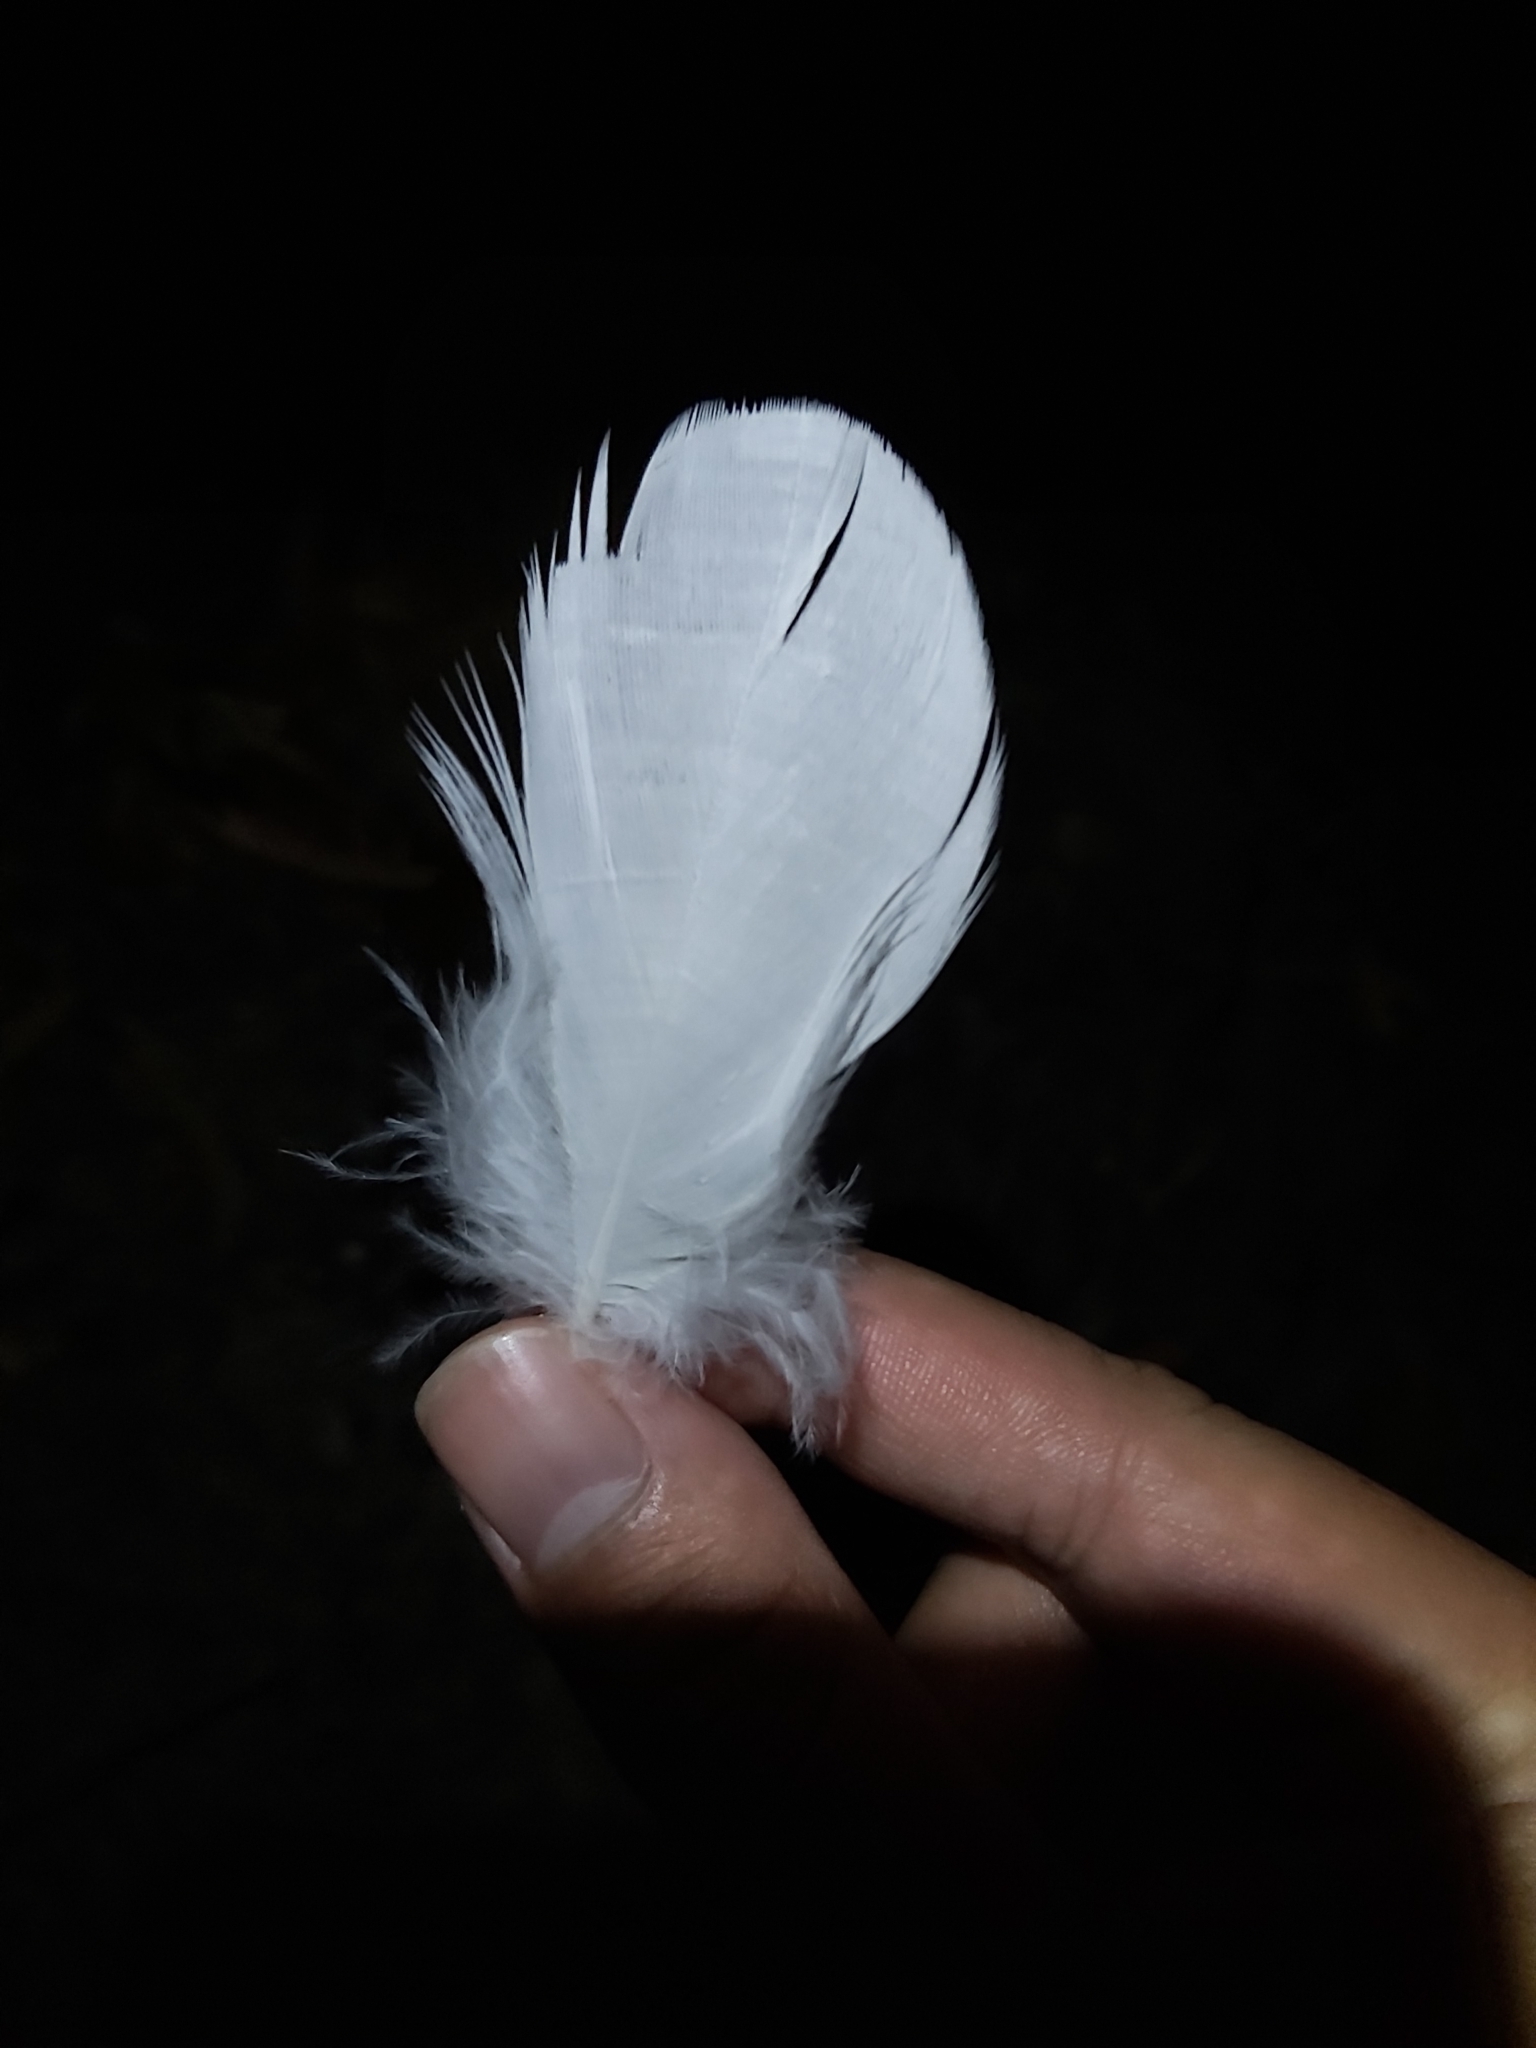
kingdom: Animalia
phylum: Chordata
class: Aves
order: Psittaciformes
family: Psittacidae
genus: Cacatua
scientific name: Cacatua galerita
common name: Sulphur-crested cockatoo
